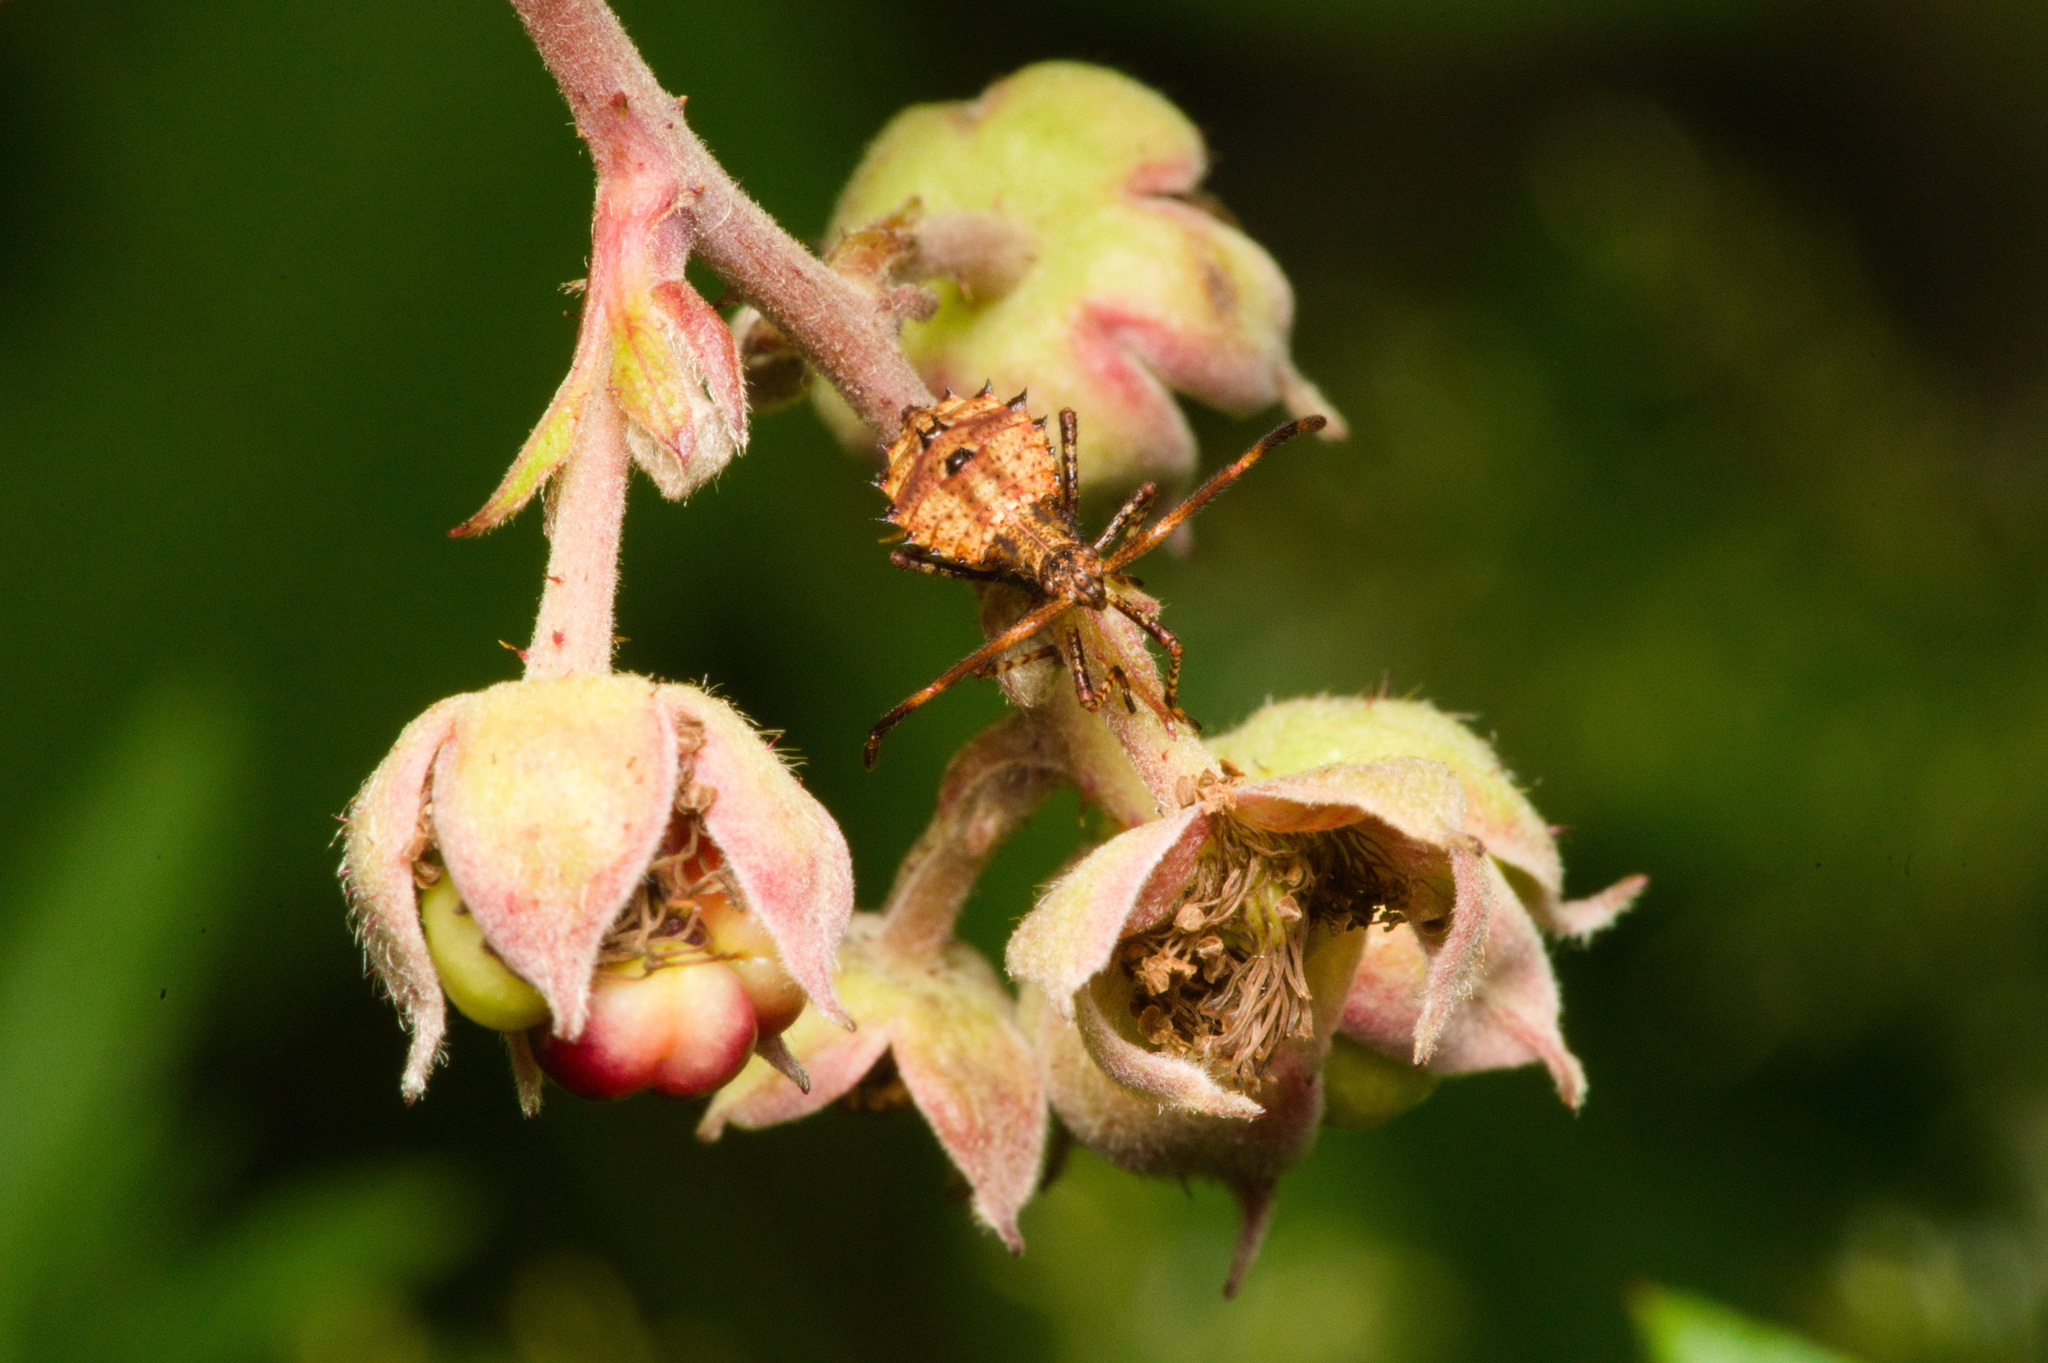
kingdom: Animalia
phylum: Arthropoda
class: Insecta
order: Hemiptera
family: Coreidae
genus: Coreus
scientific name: Coreus marginatus
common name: Dock bug
